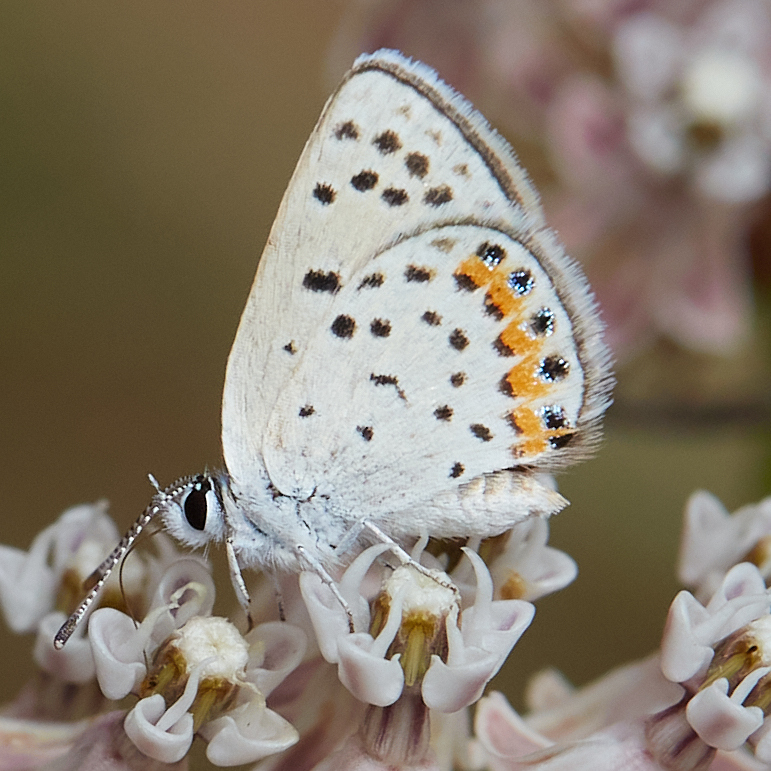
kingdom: Animalia
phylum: Arthropoda
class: Insecta
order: Lepidoptera
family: Lycaenidae
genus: Icaricia
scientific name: Icaricia acmon
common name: Acmon blue
